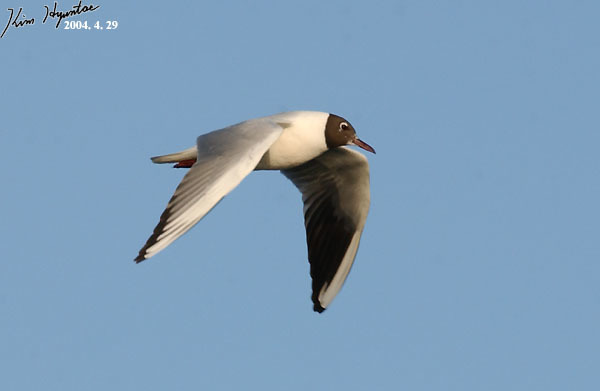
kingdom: Animalia
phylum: Chordata
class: Aves
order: Charadriiformes
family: Laridae
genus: Chroicocephalus
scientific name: Chroicocephalus ridibundus
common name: Black-headed gull
